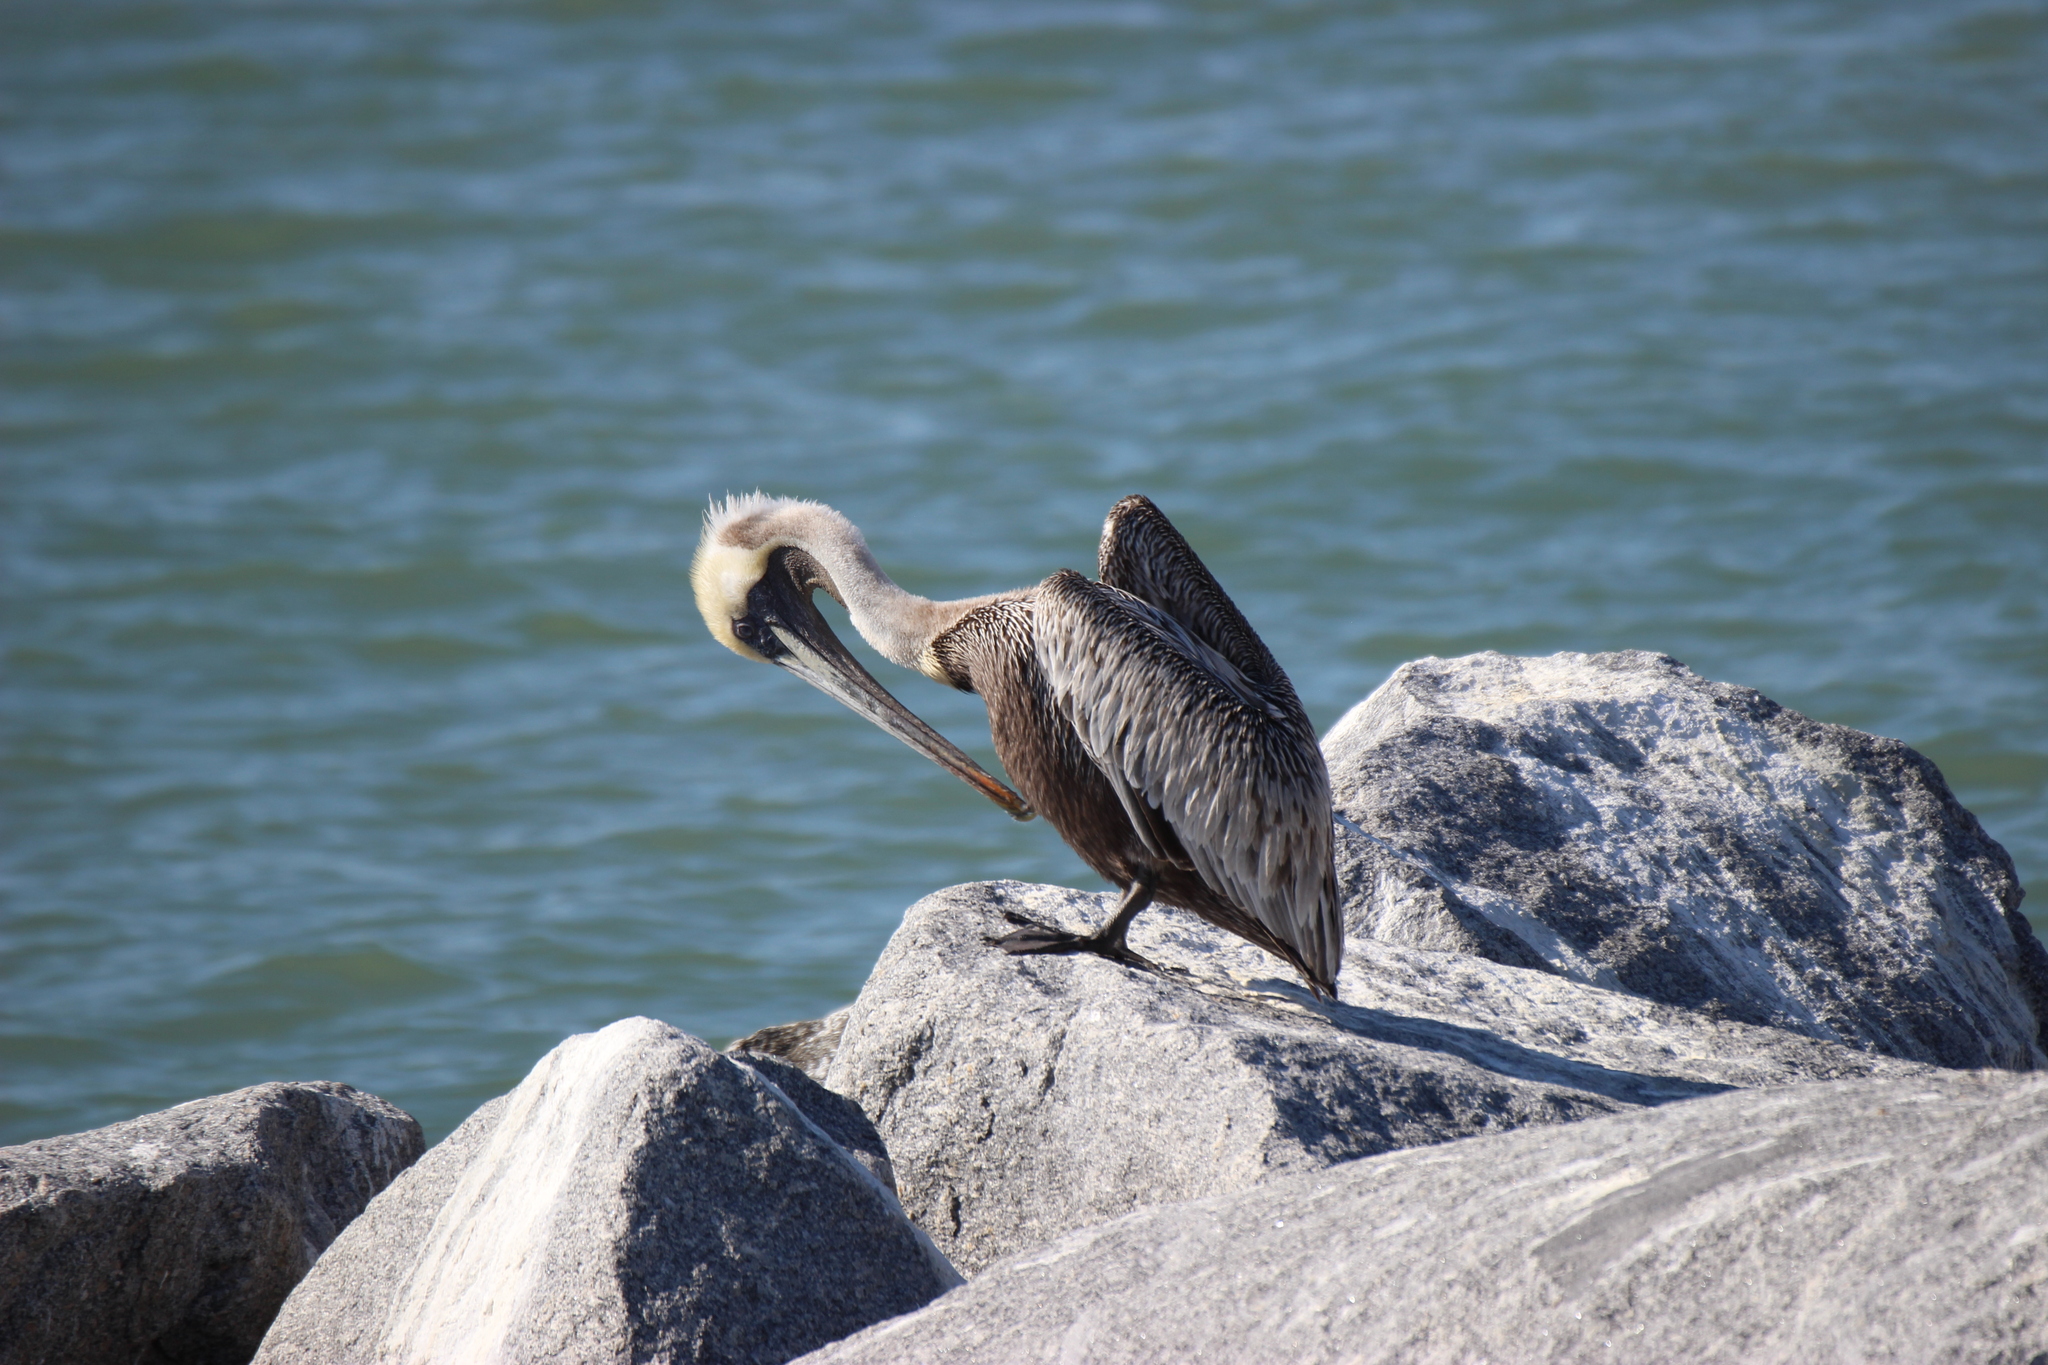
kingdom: Animalia
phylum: Chordata
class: Aves
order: Pelecaniformes
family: Pelecanidae
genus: Pelecanus
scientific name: Pelecanus occidentalis
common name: Brown pelican
